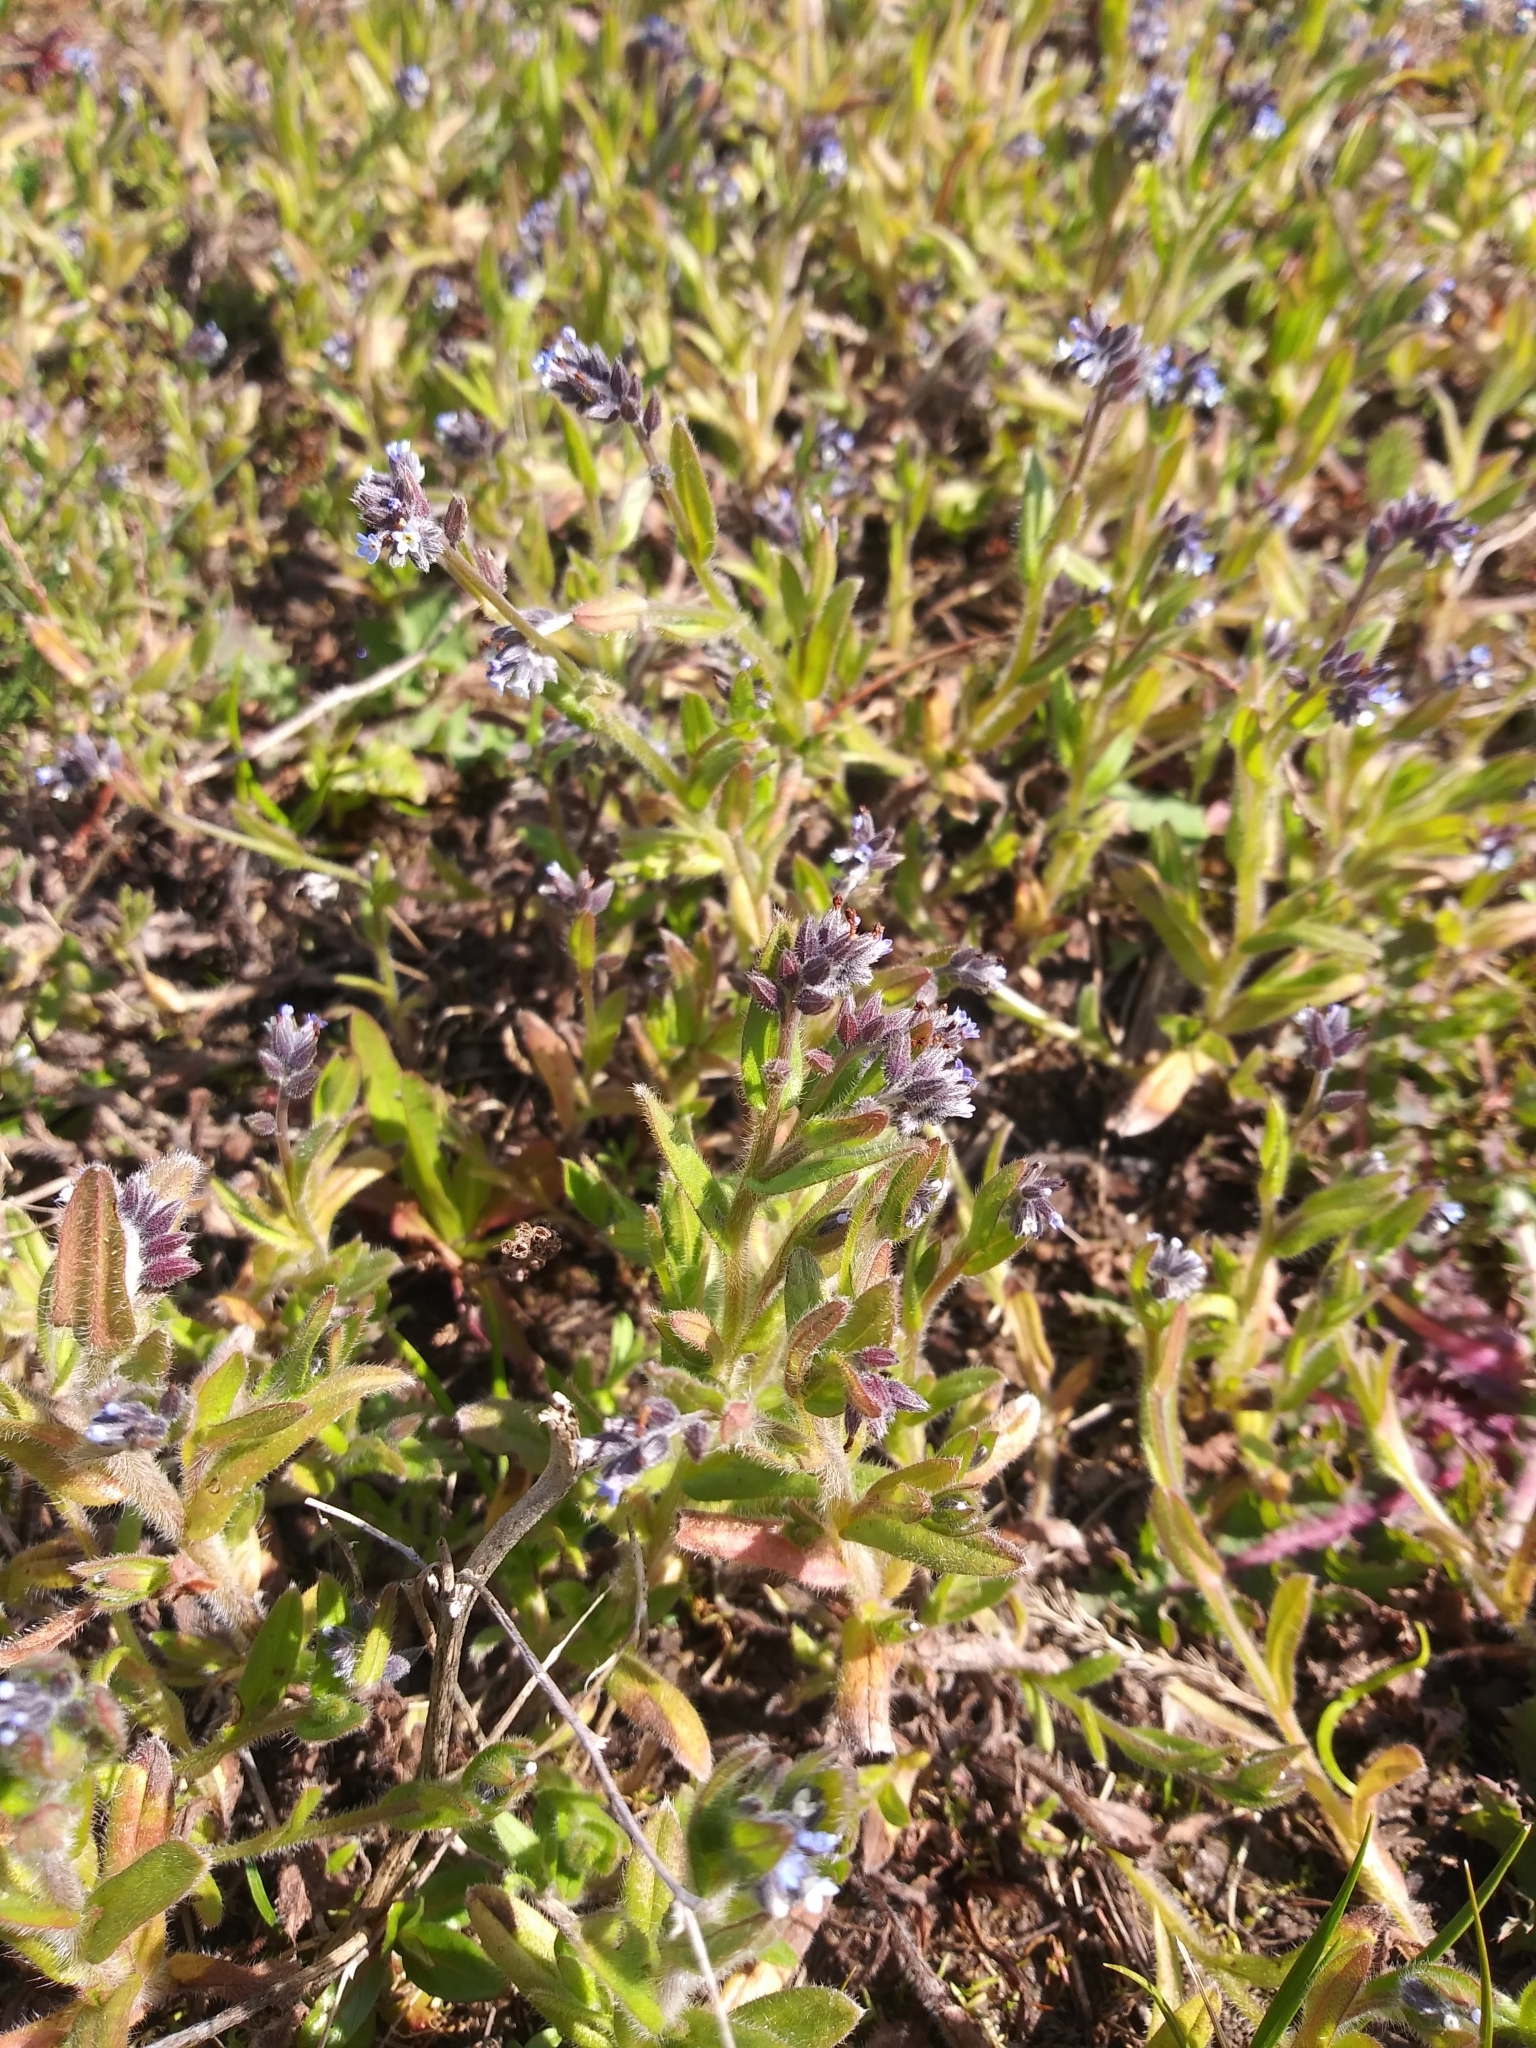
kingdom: Plantae
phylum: Tracheophyta
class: Magnoliopsida
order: Boraginales
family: Boraginaceae
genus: Myosotis
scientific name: Myosotis discolor
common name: Changing forget-me-not
